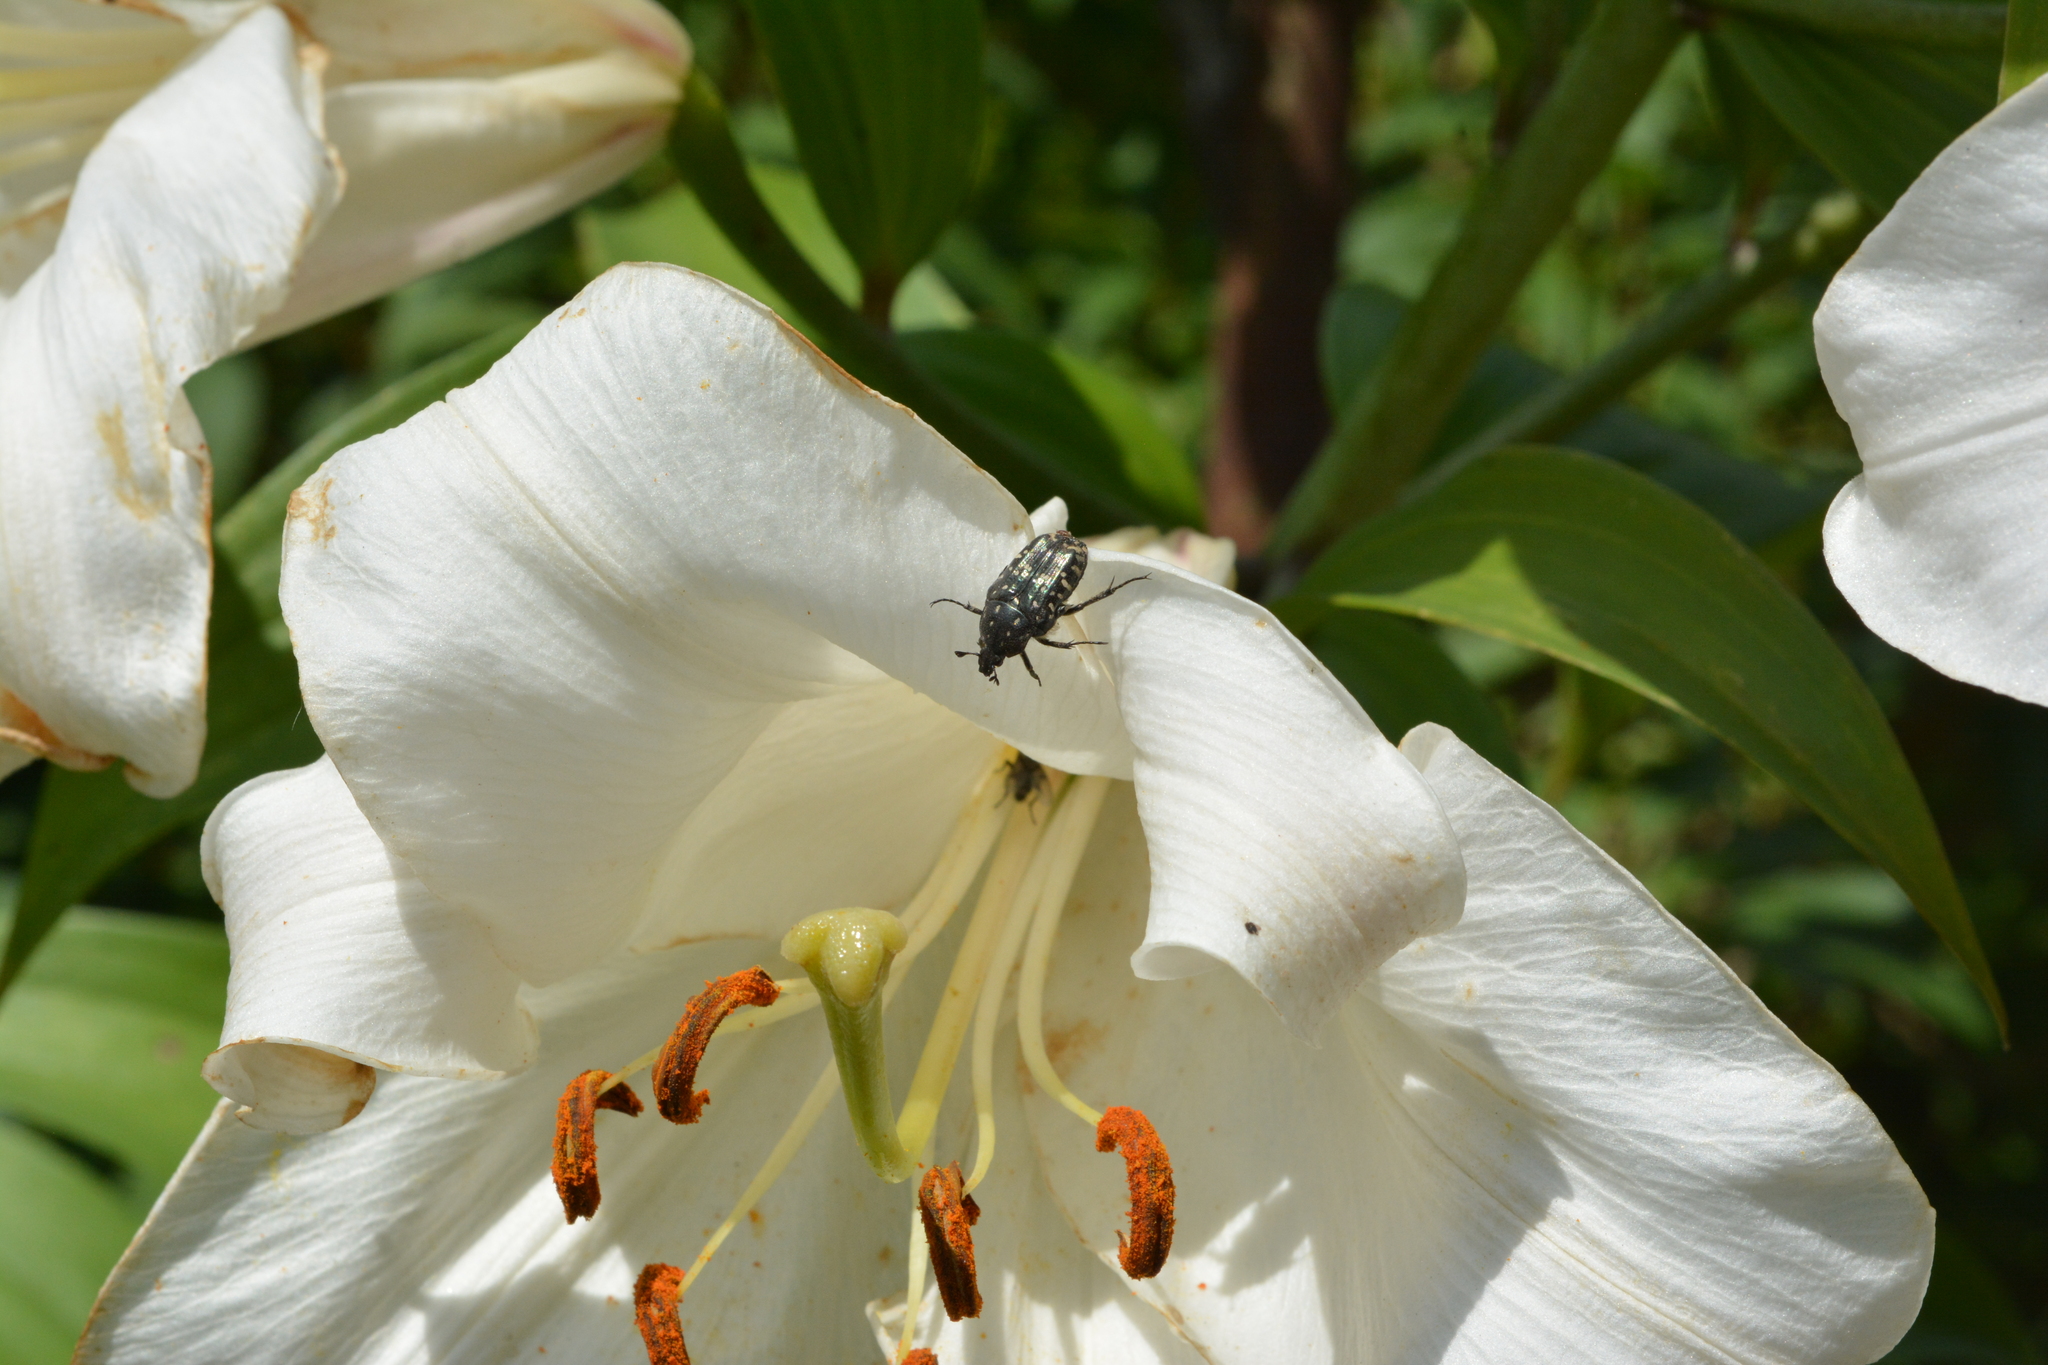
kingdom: Animalia
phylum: Arthropoda
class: Insecta
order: Coleoptera
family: Scarabaeidae
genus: Oxythyrea
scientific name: Oxythyrea funesta
